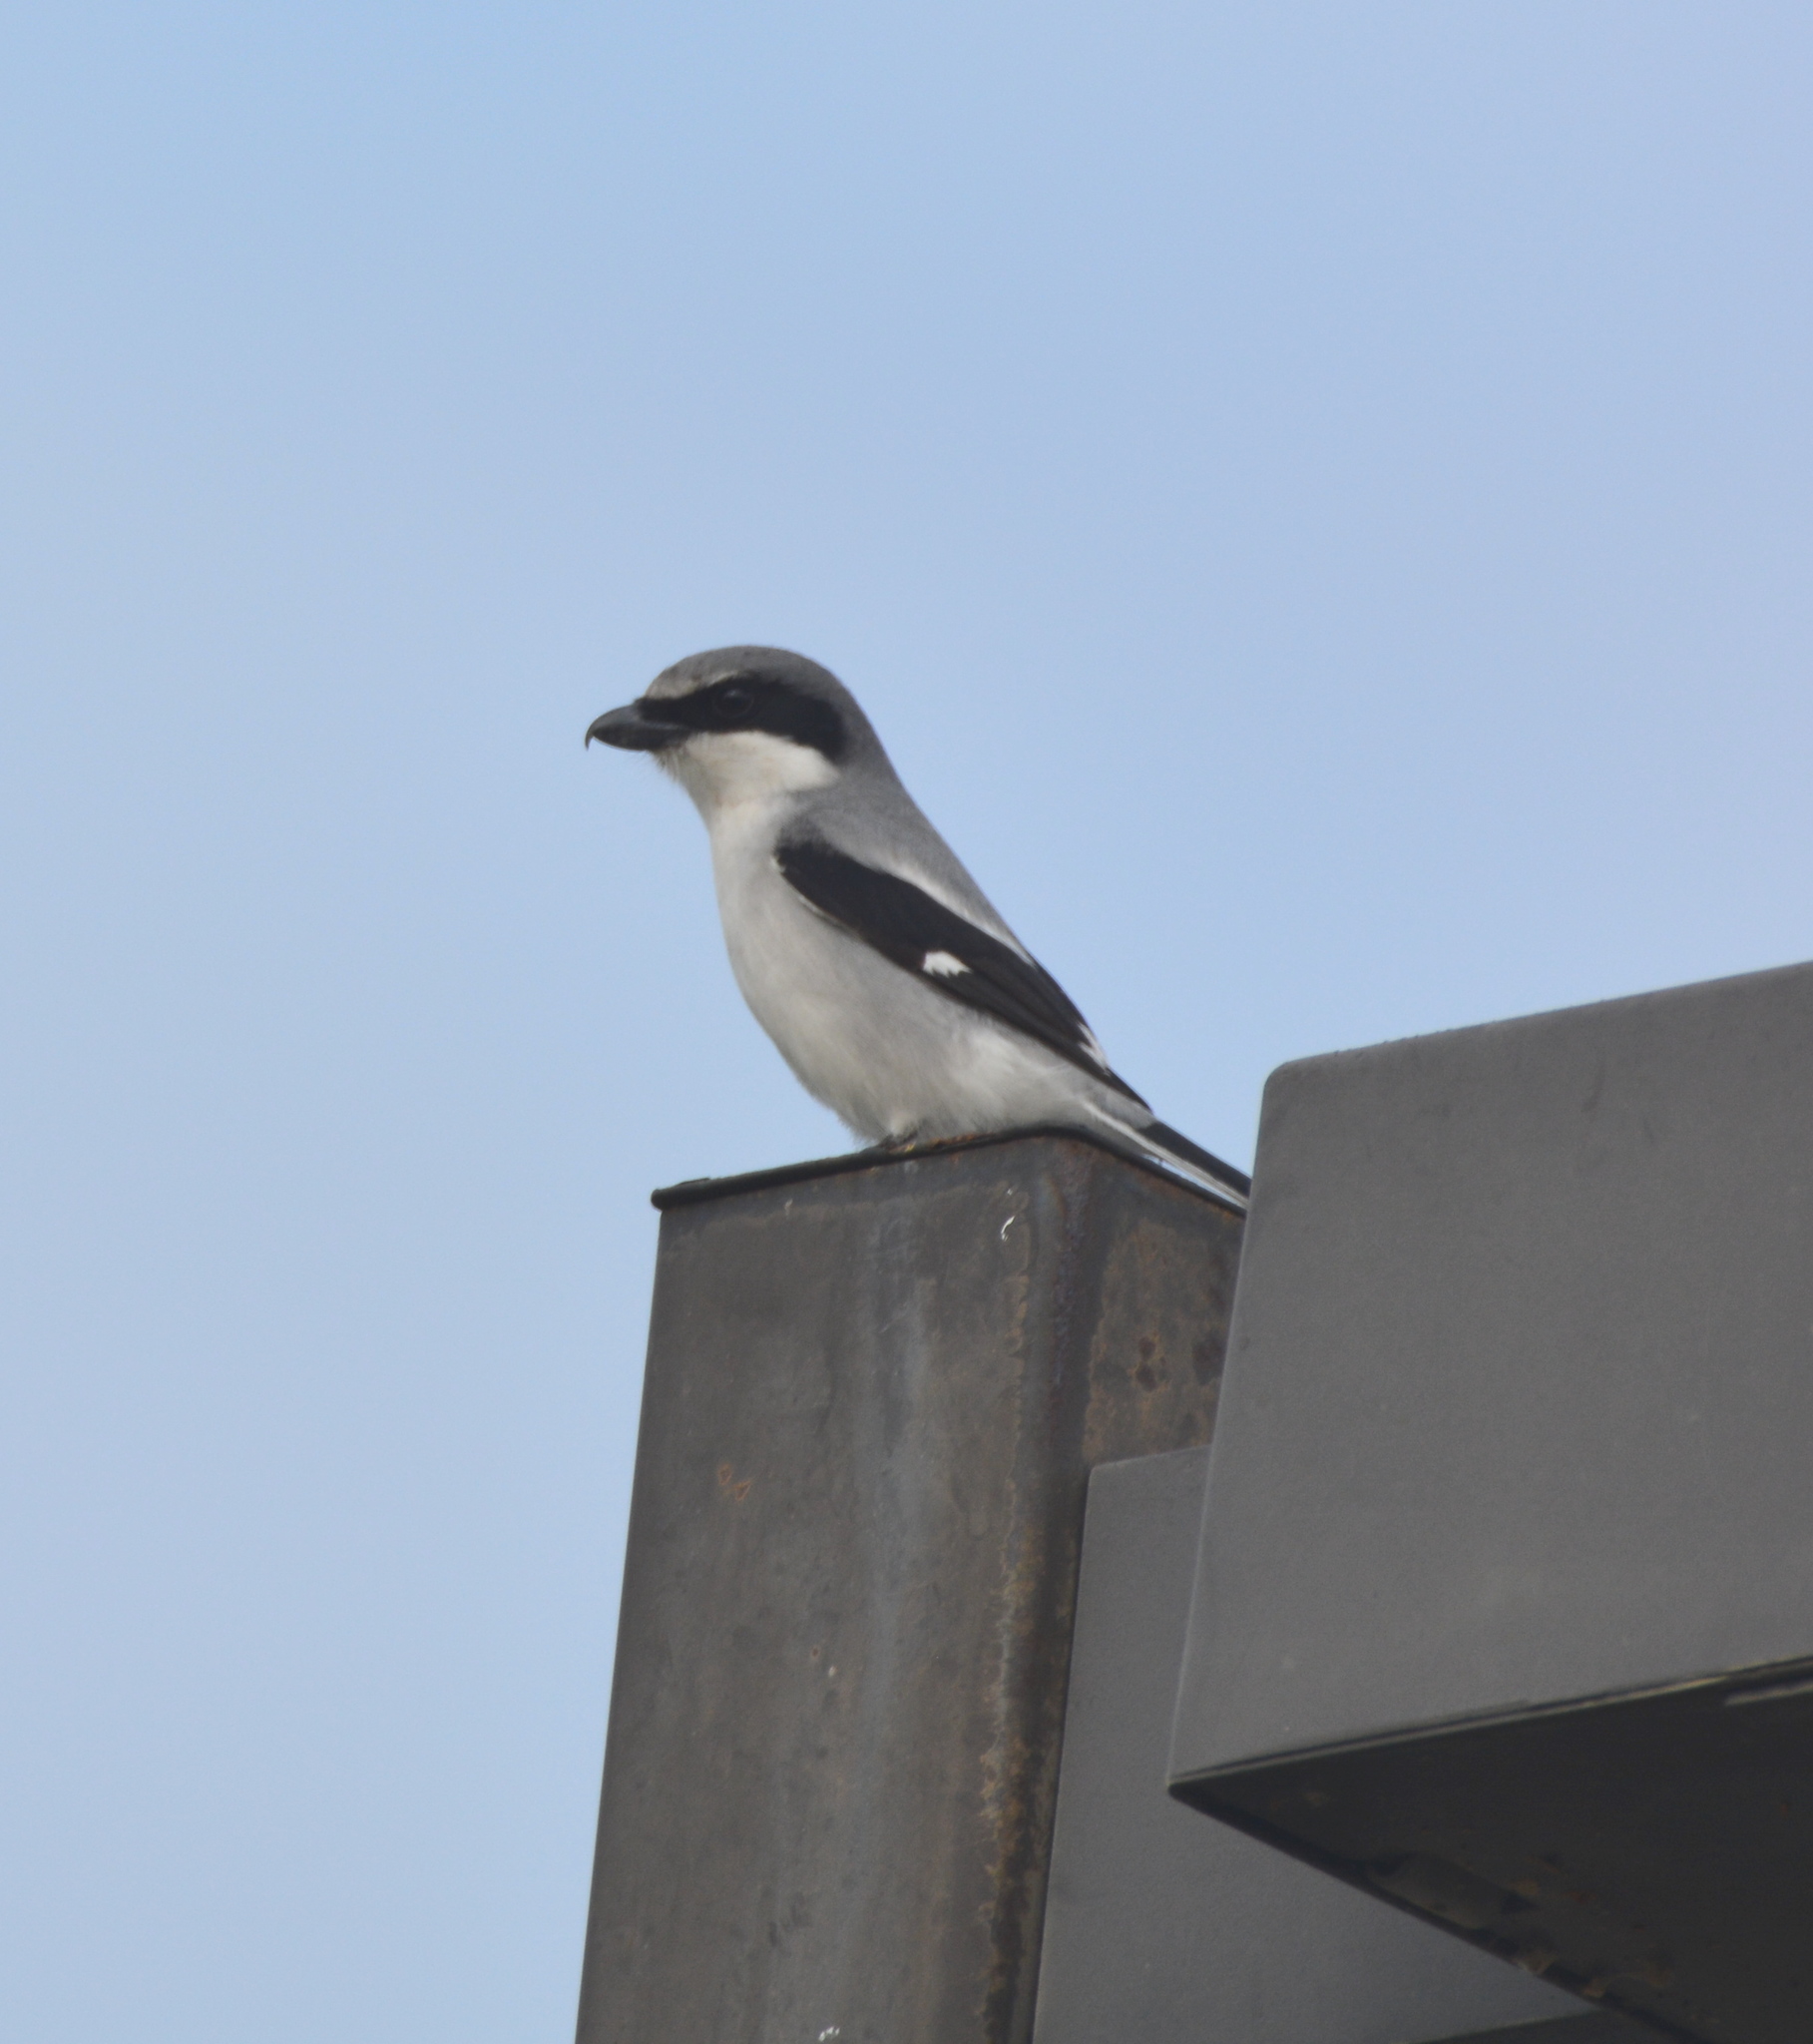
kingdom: Animalia
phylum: Chordata
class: Aves
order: Passeriformes
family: Laniidae
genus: Lanius
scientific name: Lanius ludovicianus
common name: Loggerhead shrike
